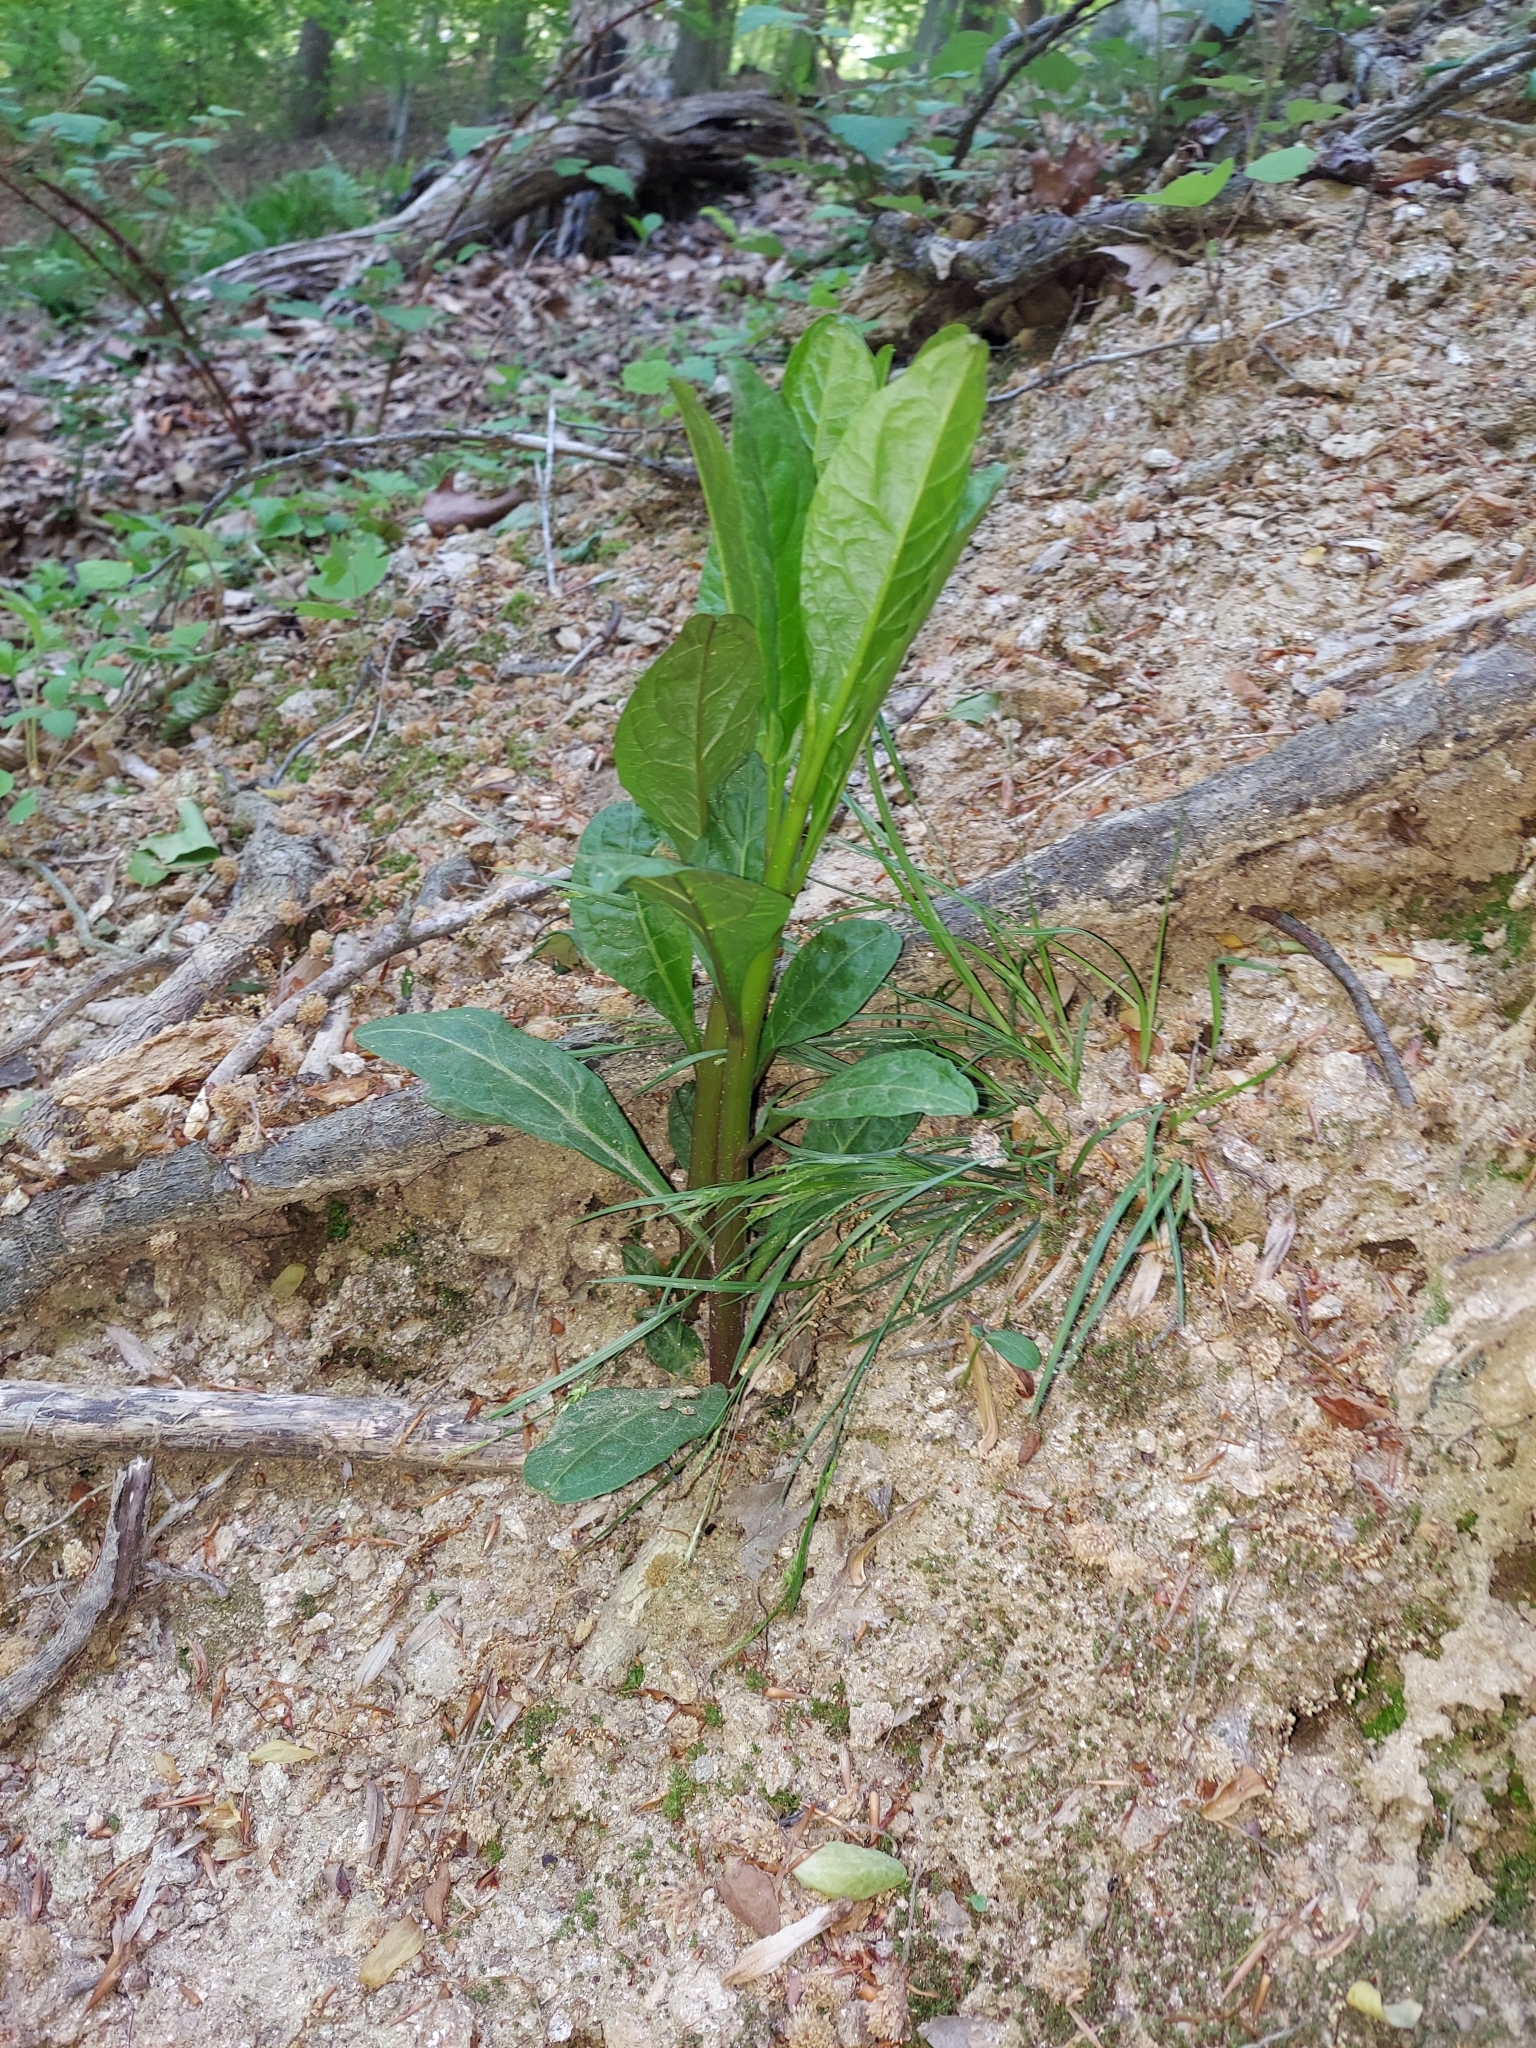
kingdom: Plantae
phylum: Tracheophyta
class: Magnoliopsida
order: Caryophyllales
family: Phytolaccaceae
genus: Phytolacca
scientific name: Phytolacca americana
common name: American pokeweed
